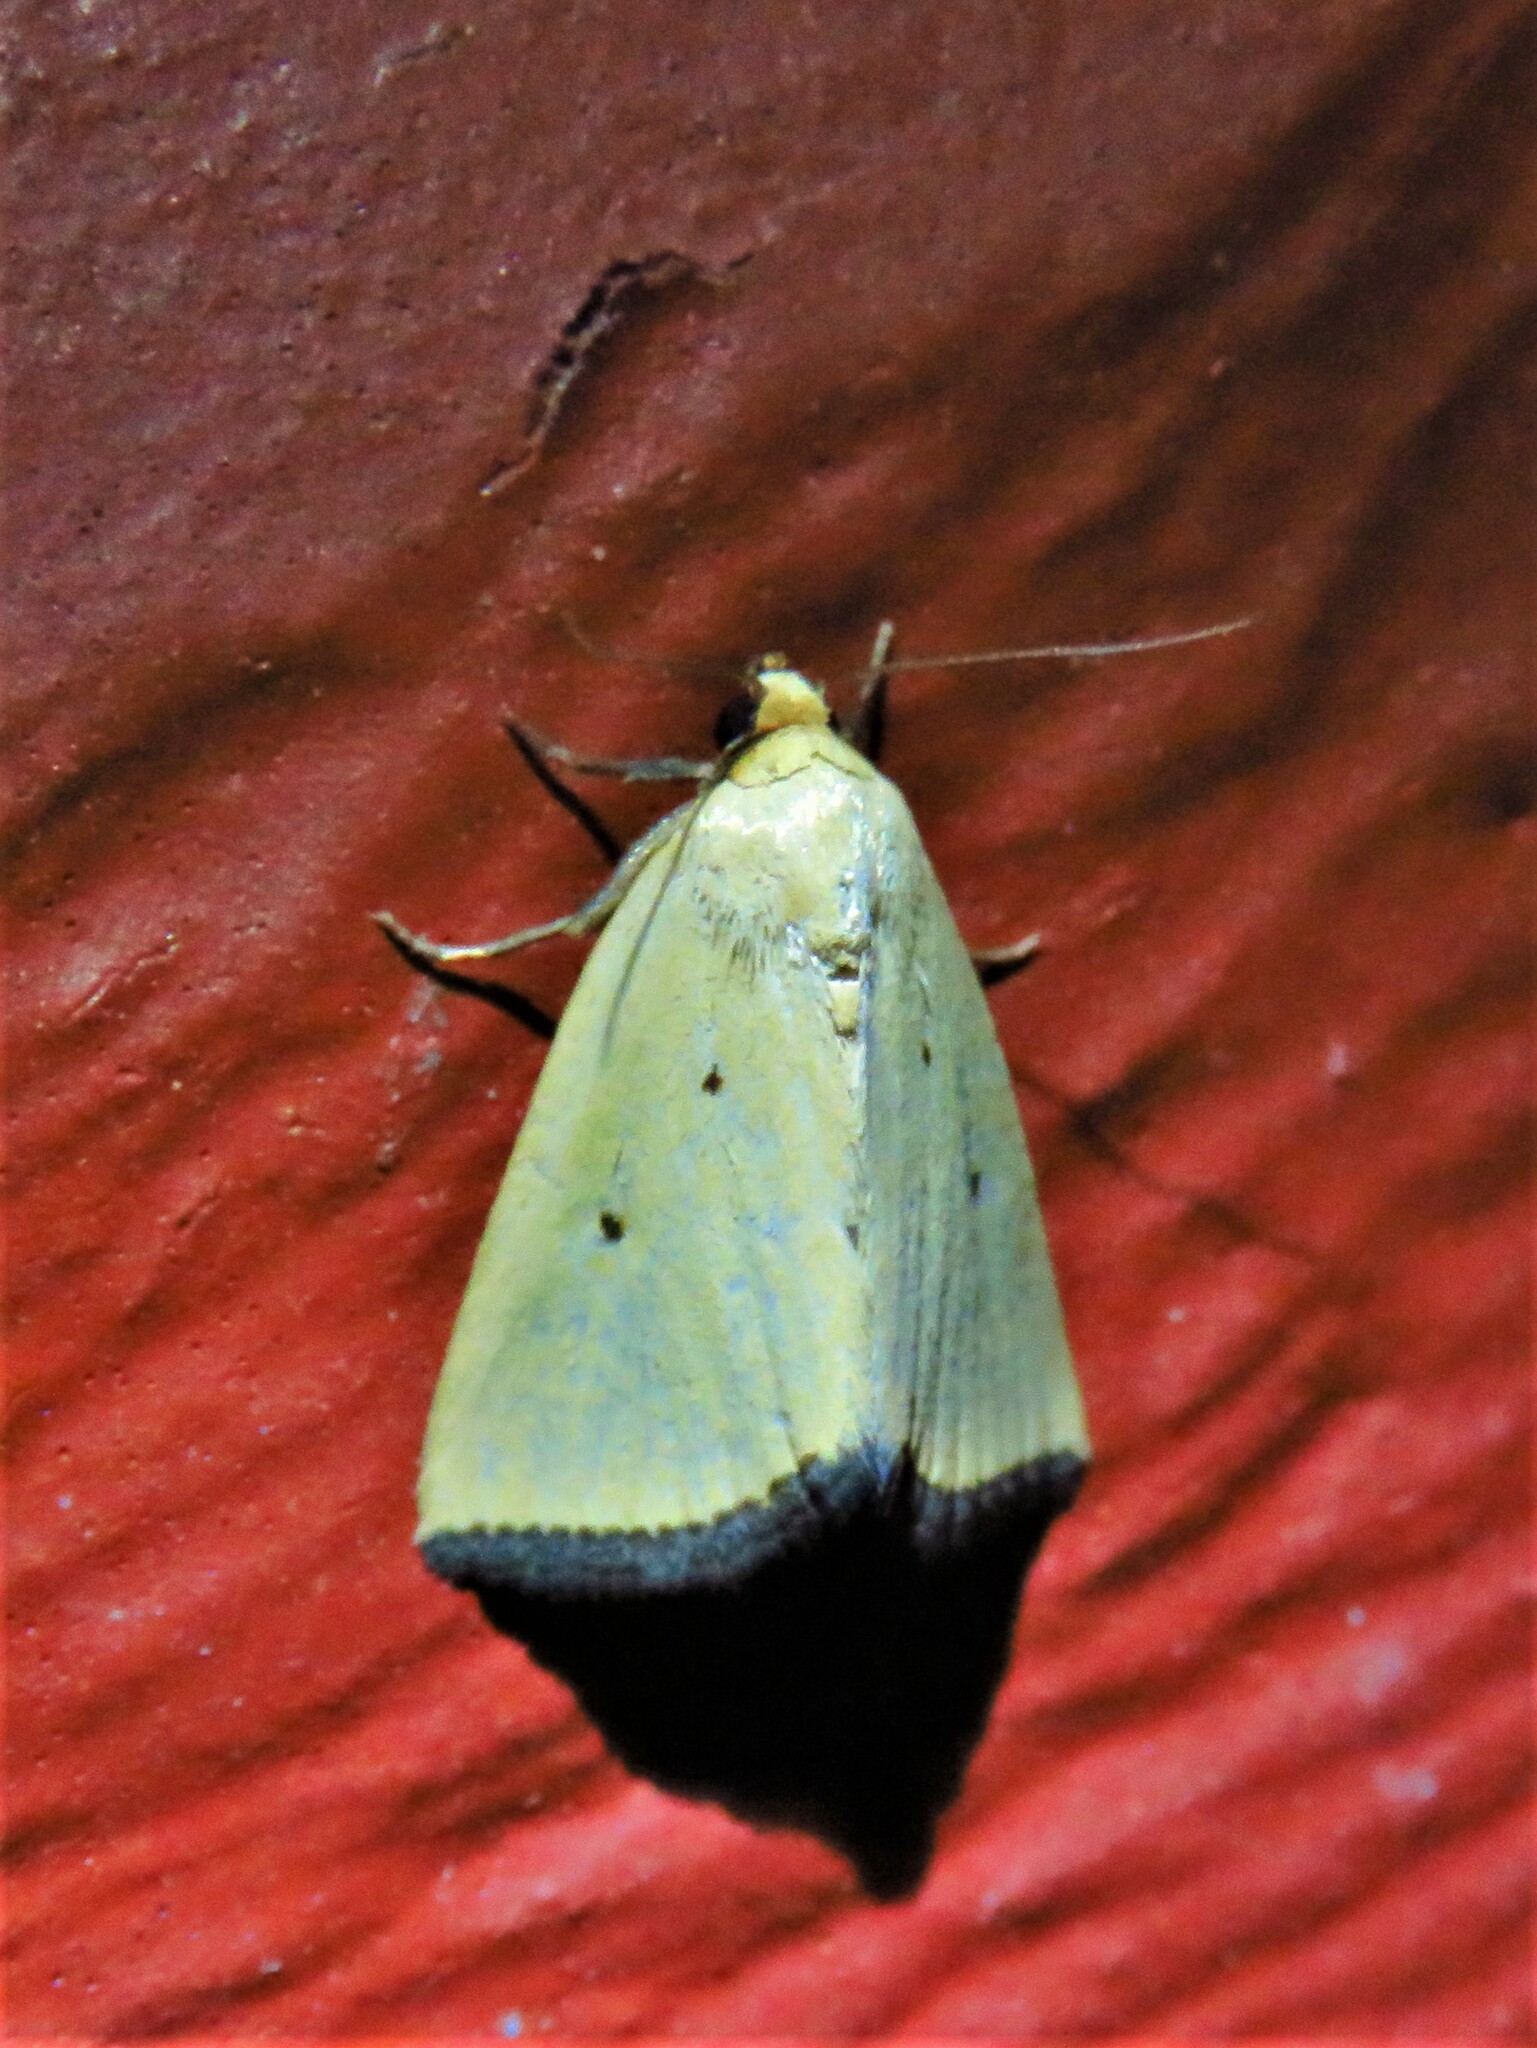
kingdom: Animalia
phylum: Arthropoda
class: Insecta
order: Lepidoptera
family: Noctuidae
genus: Marimatha
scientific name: Marimatha nigrofimbria
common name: Black-bordered lemon moth
